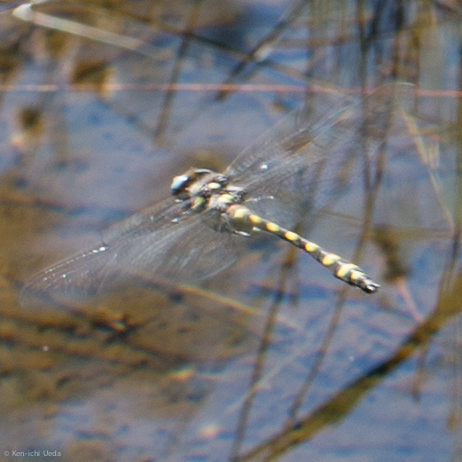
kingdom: Animalia
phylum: Arthropoda
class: Insecta
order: Odonata
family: Cordulegastridae
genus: Cordulegaster
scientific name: Cordulegaster dorsalis
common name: Pacific spiketail
